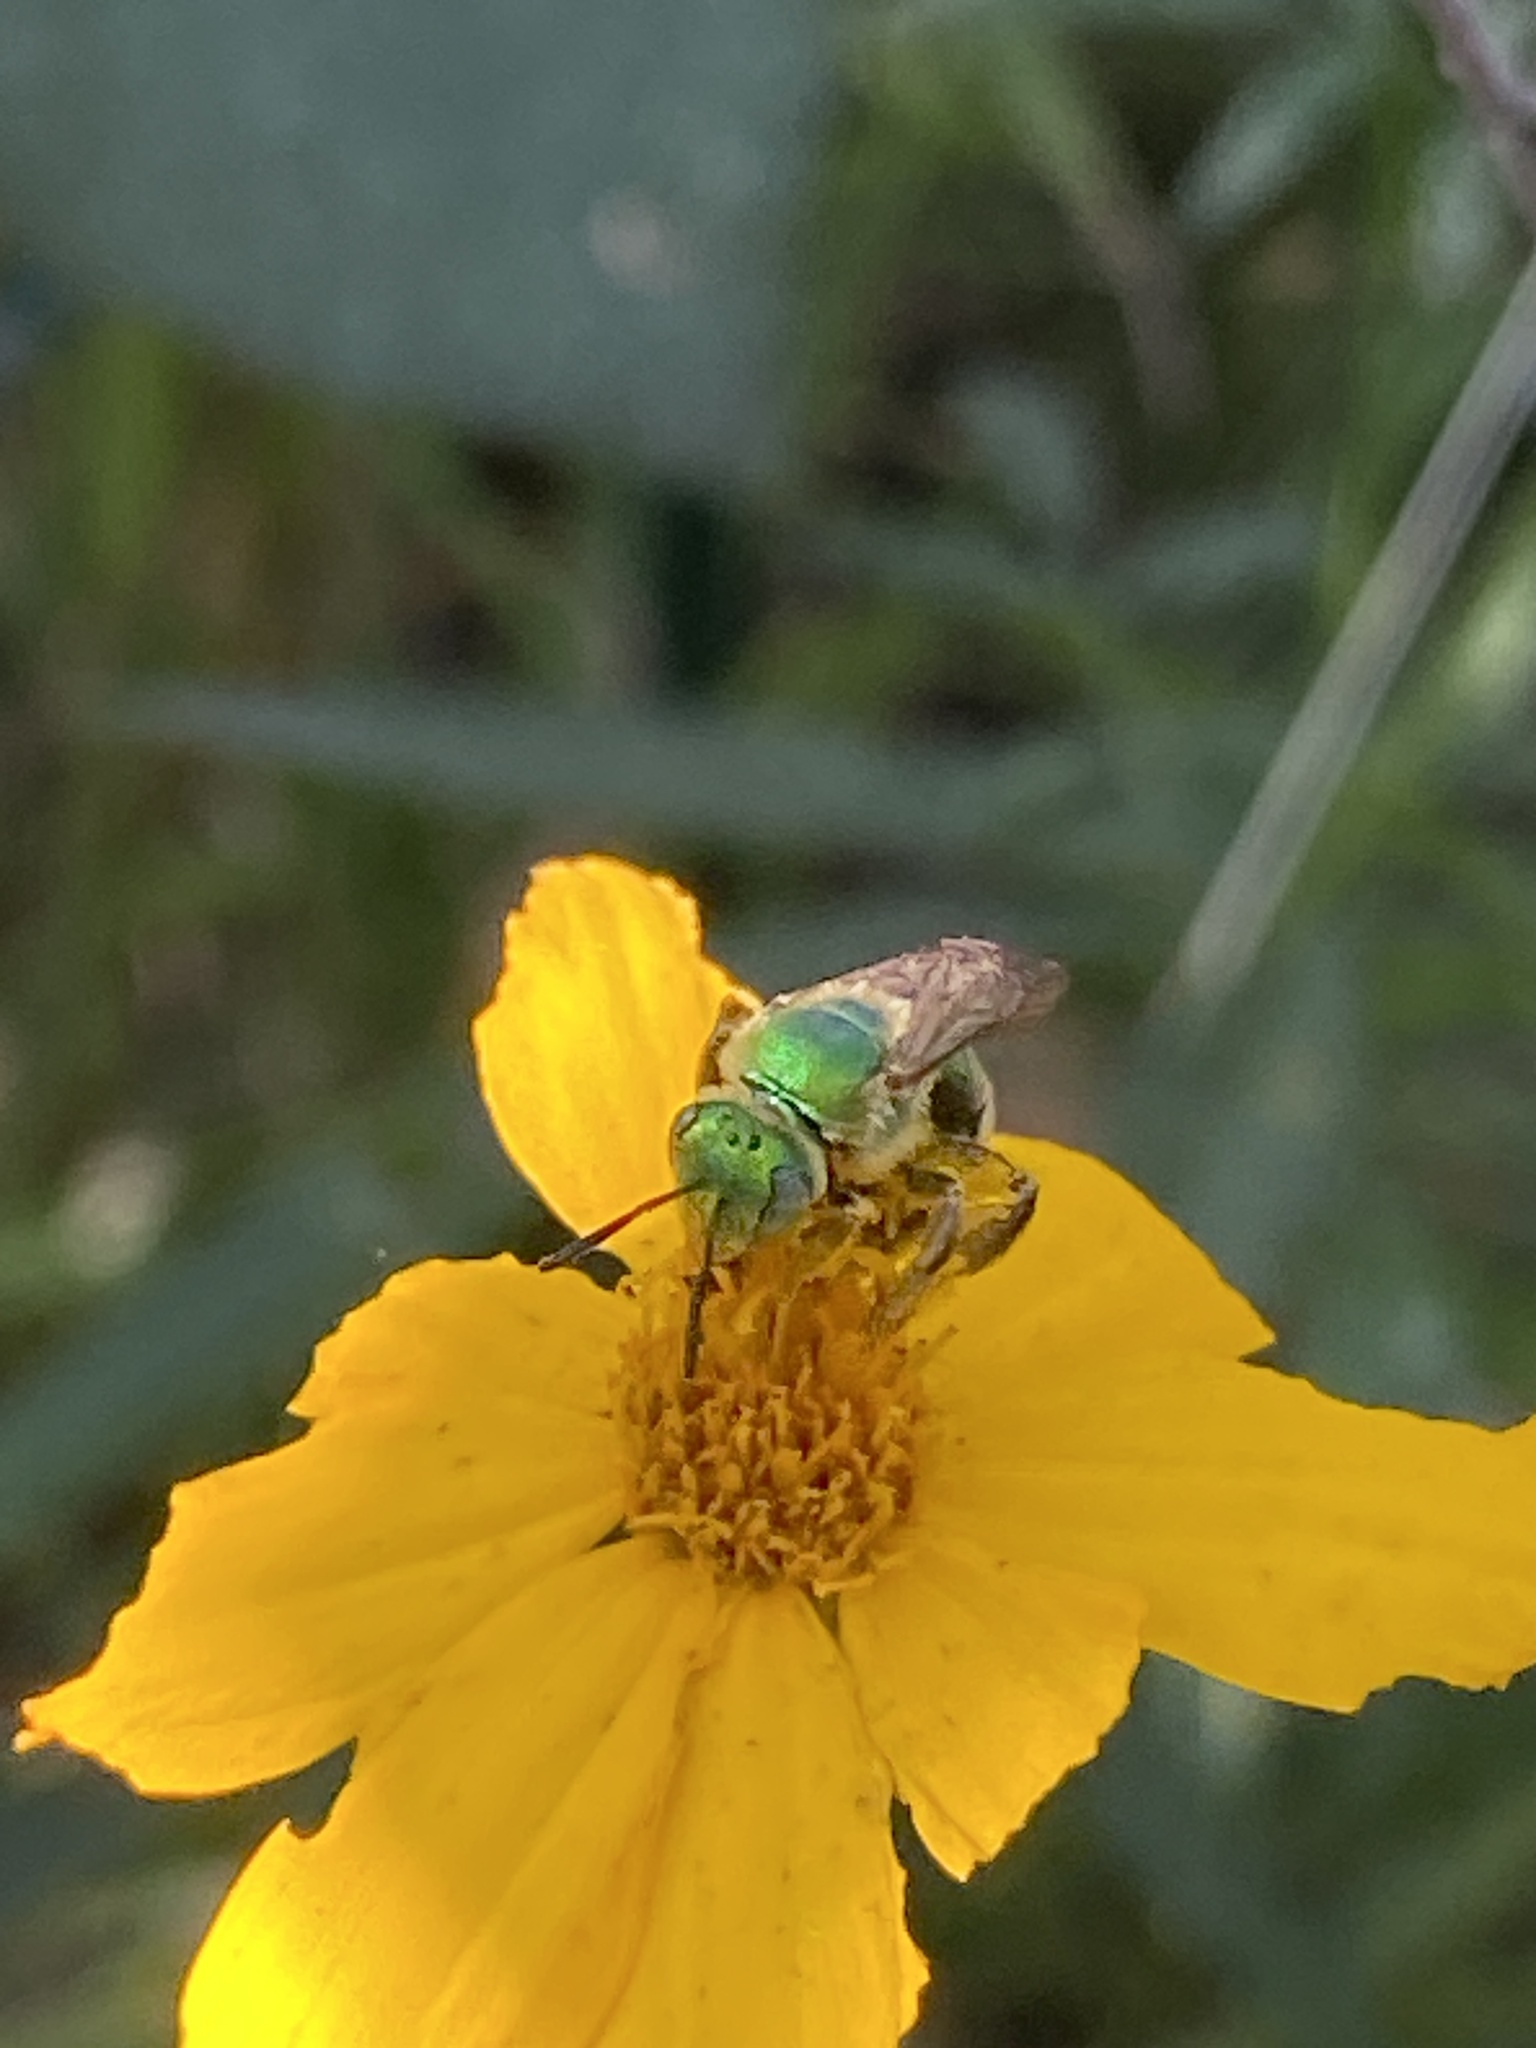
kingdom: Animalia
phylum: Arthropoda
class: Insecta
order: Hymenoptera
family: Halictidae
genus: Agapostemon
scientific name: Agapostemon texanus
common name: Texas striped sweat bee
